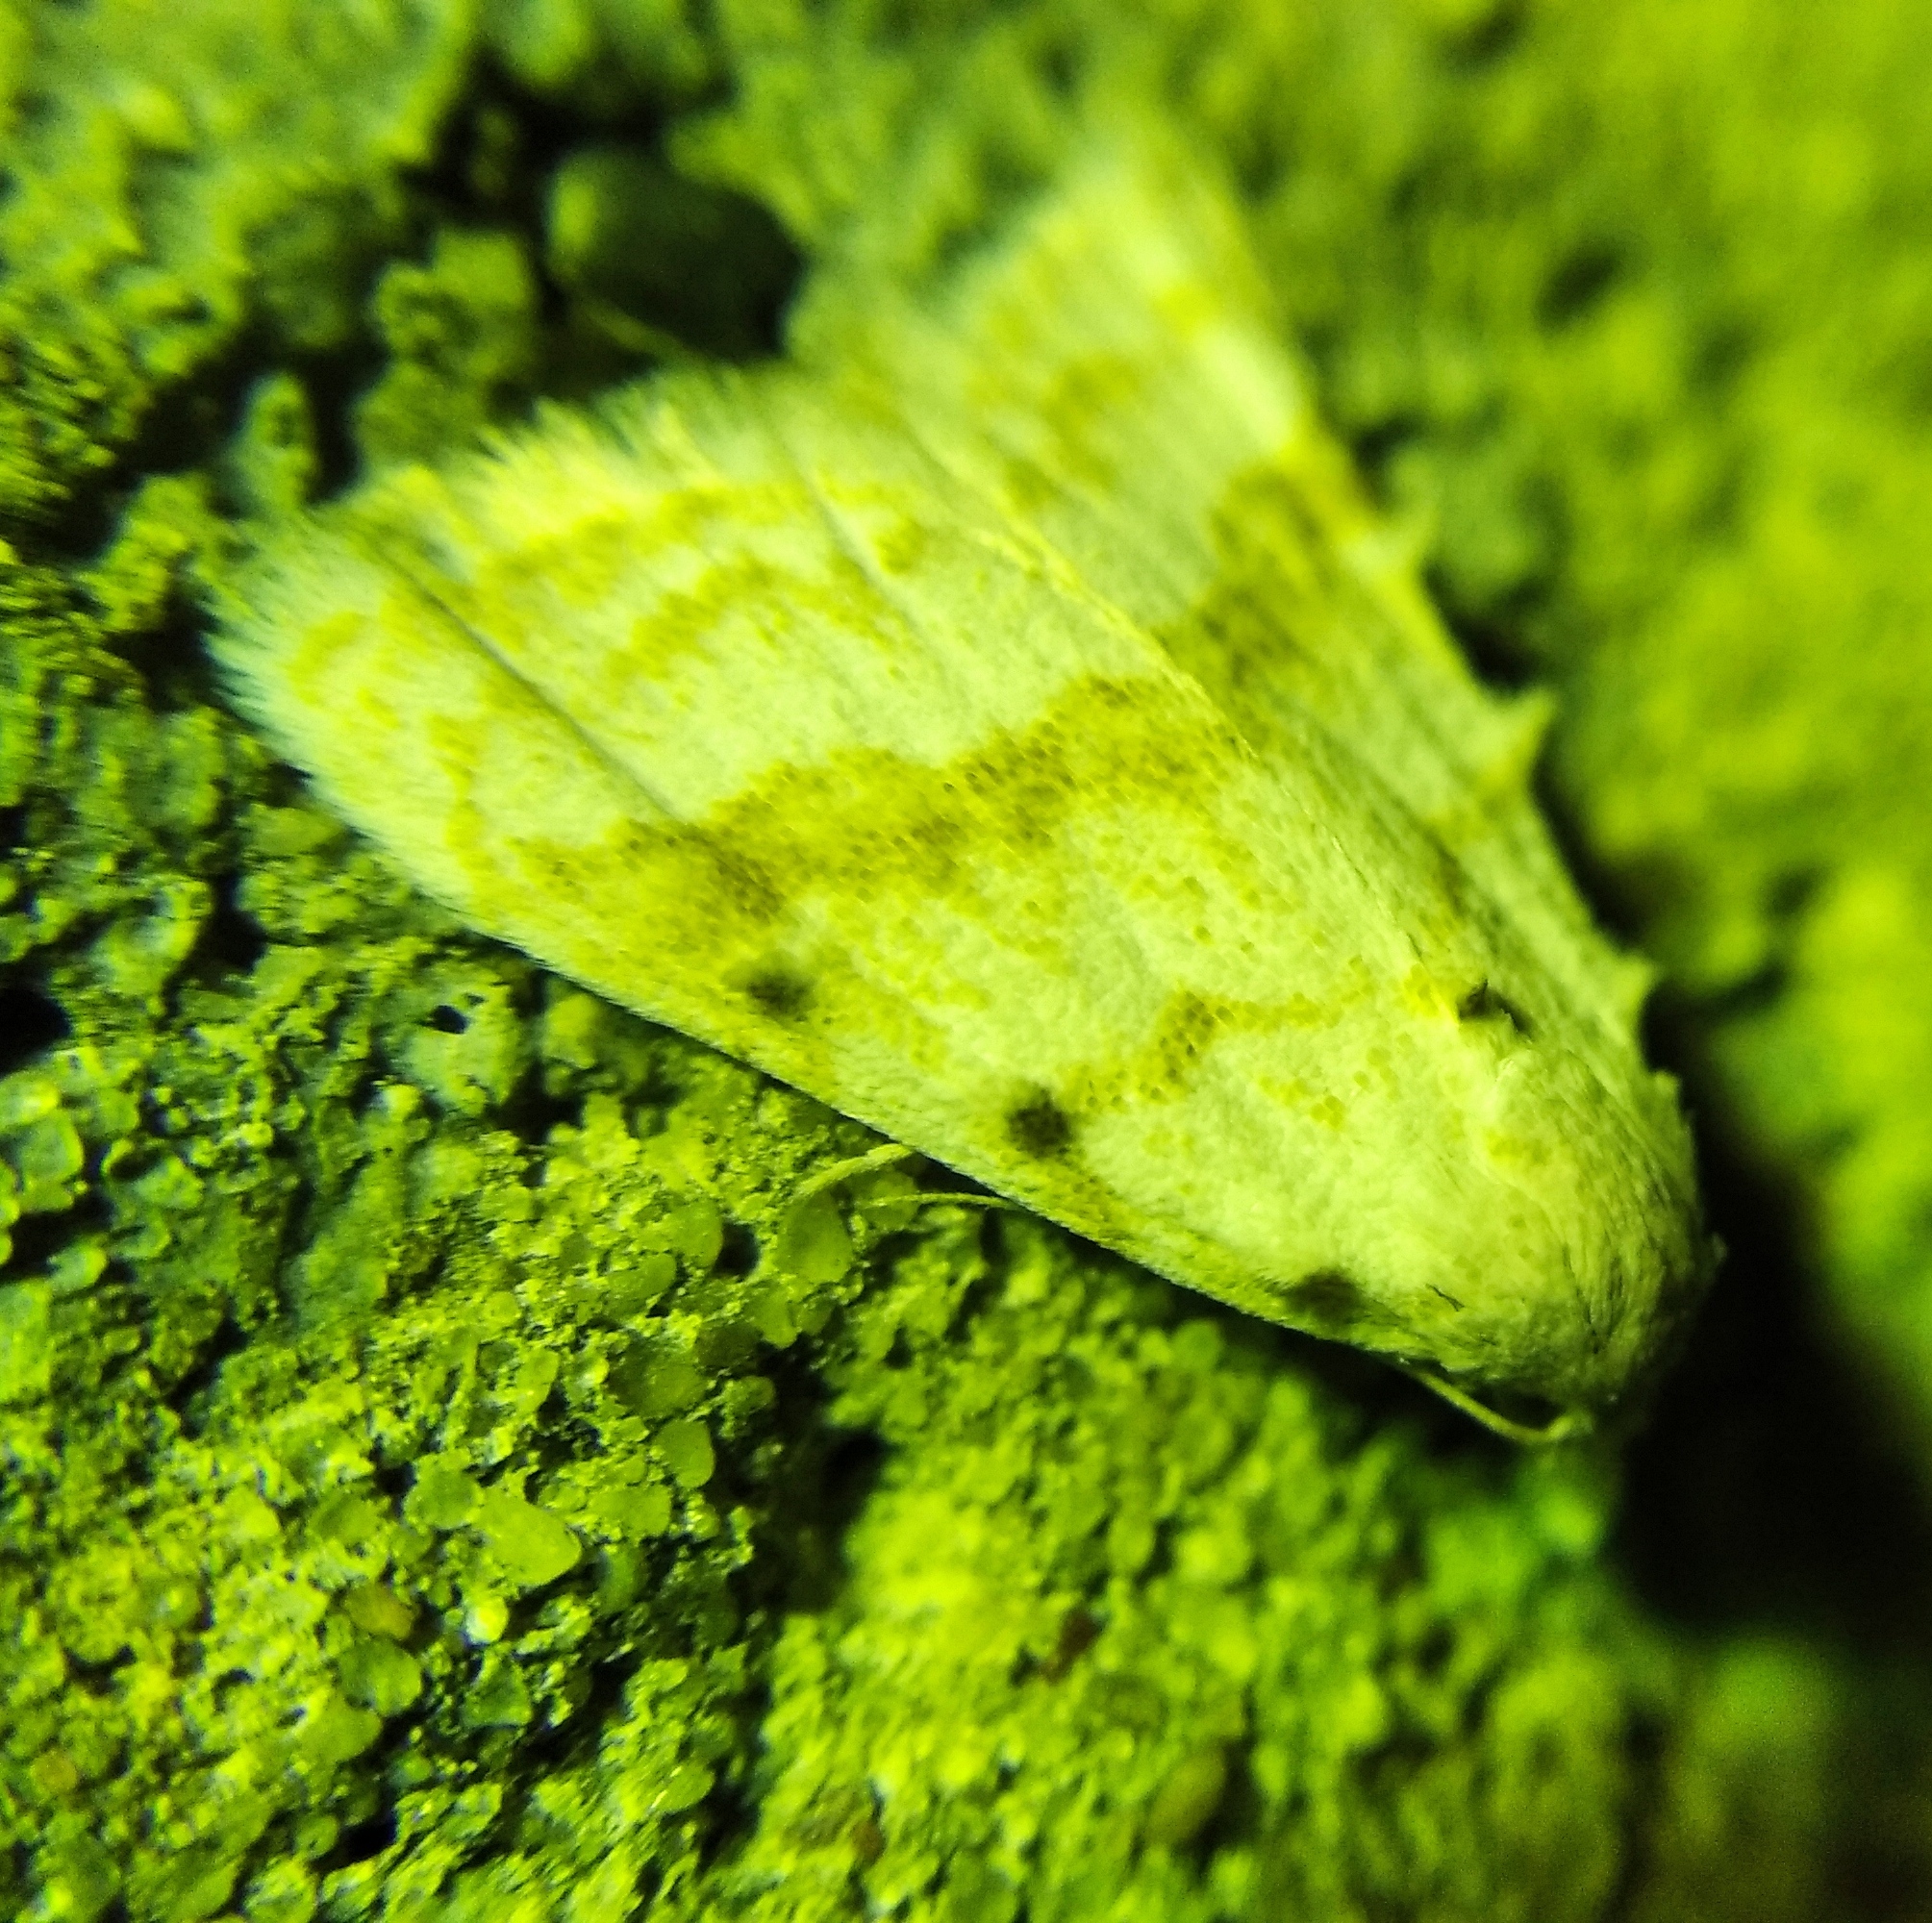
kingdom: Animalia
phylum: Arthropoda
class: Insecta
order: Lepidoptera
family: Nolidae
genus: Nola
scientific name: Nola aerugula
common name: Scarce black arches
